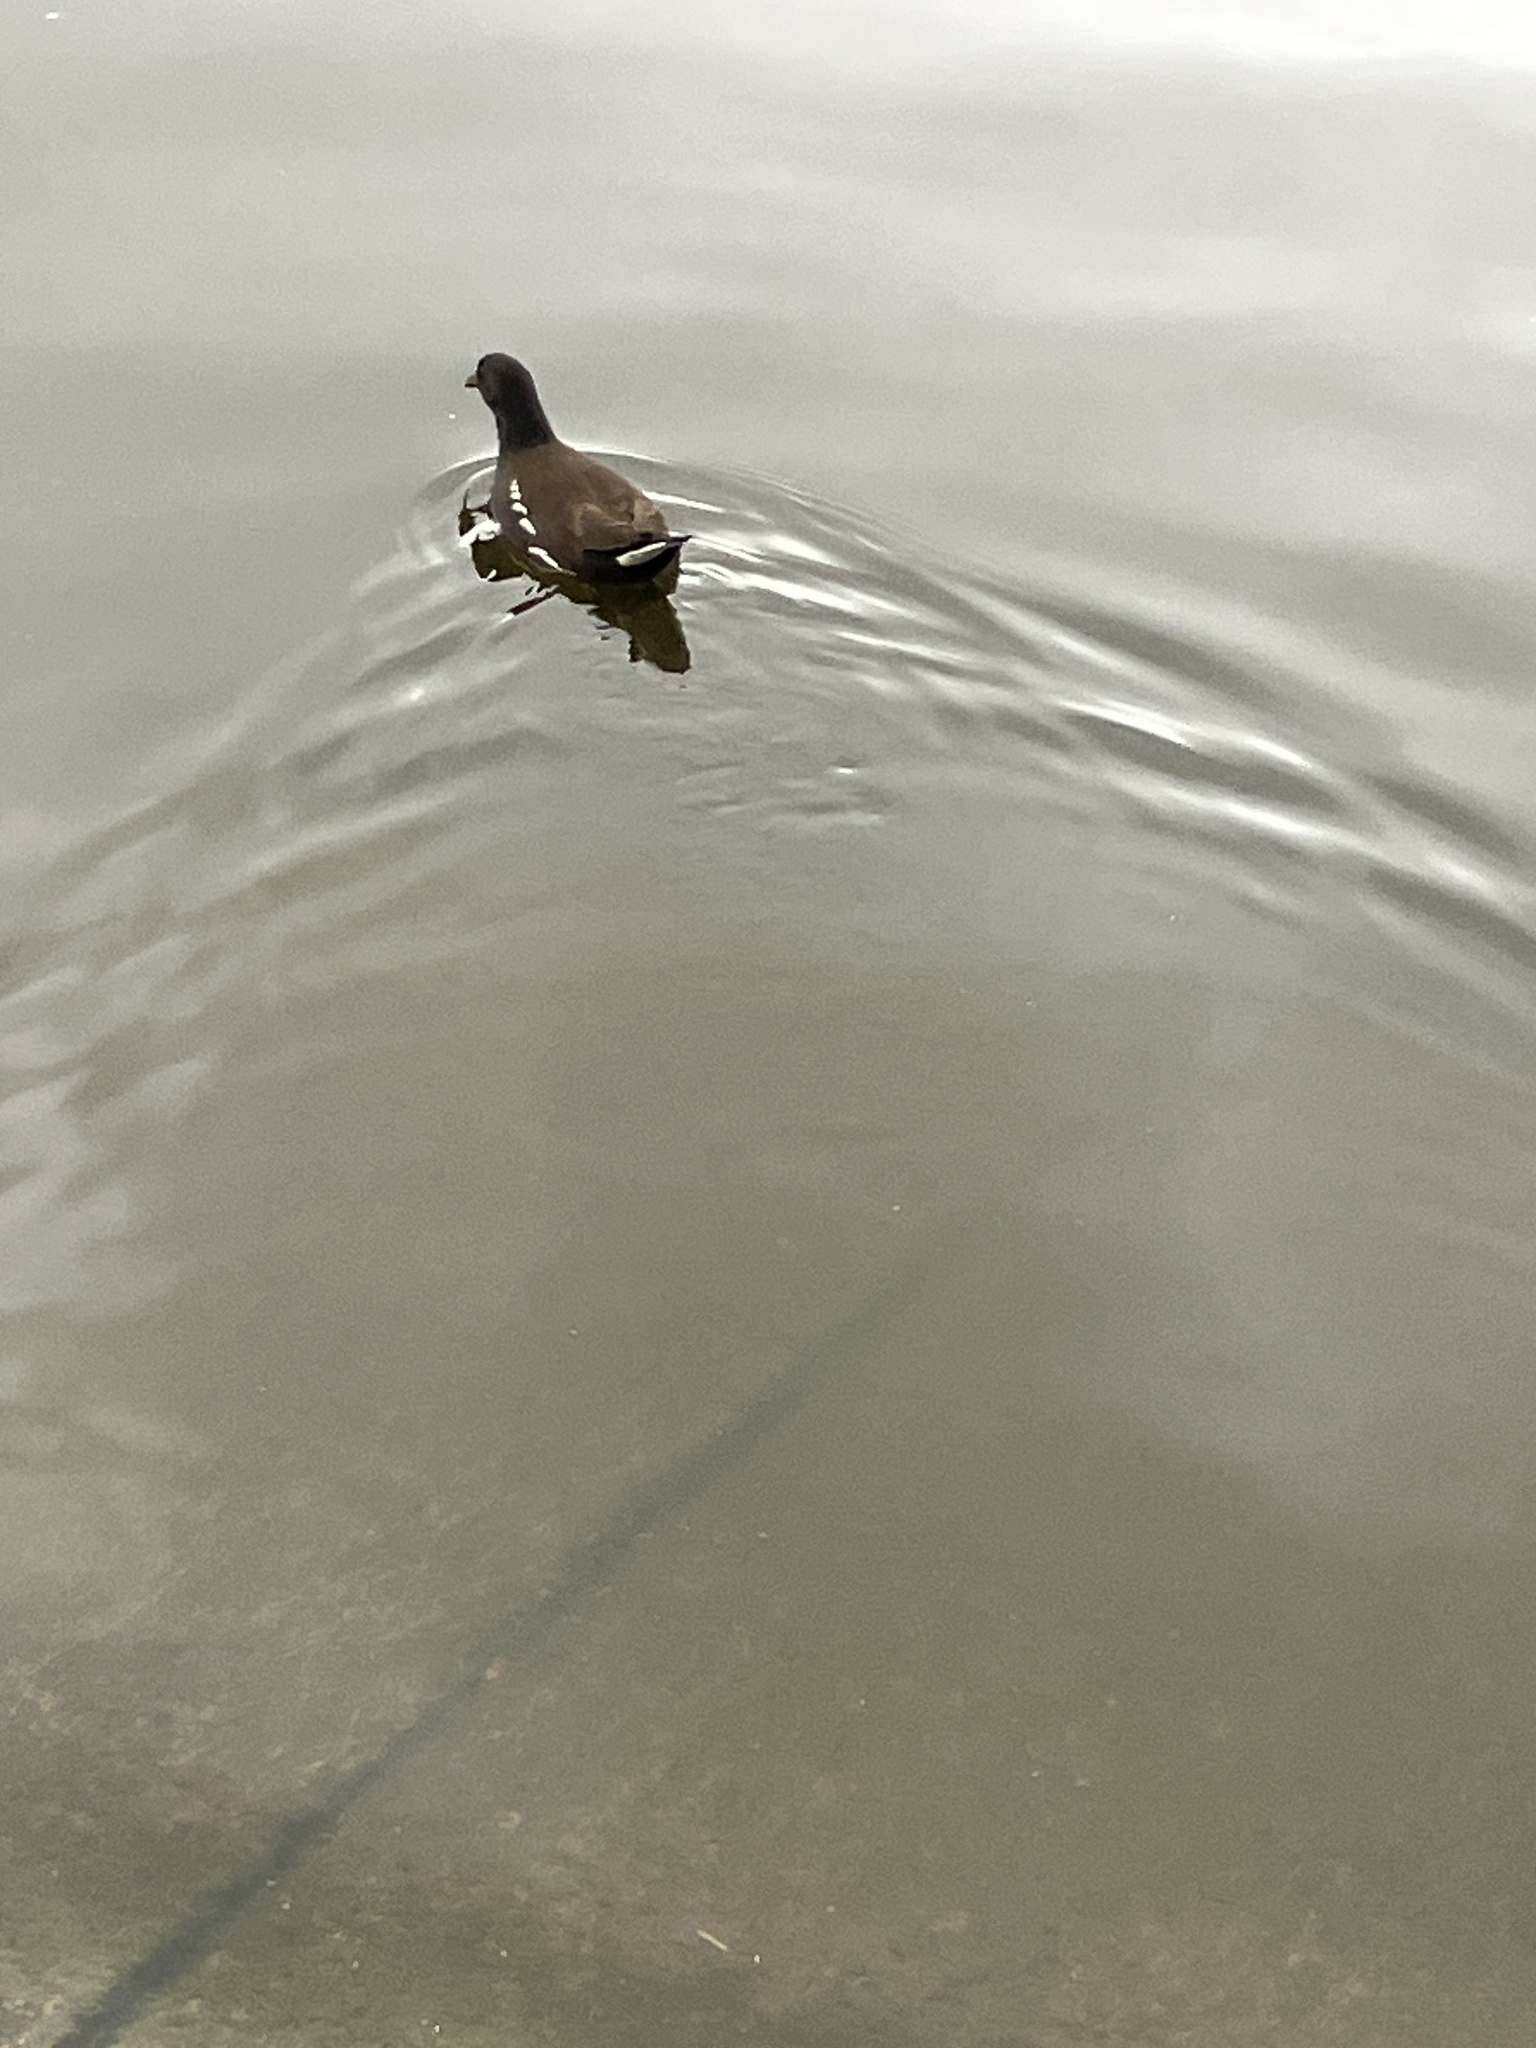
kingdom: Animalia
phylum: Chordata
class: Aves
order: Gruiformes
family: Rallidae
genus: Gallinula
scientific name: Gallinula chloropus
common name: Common moorhen
